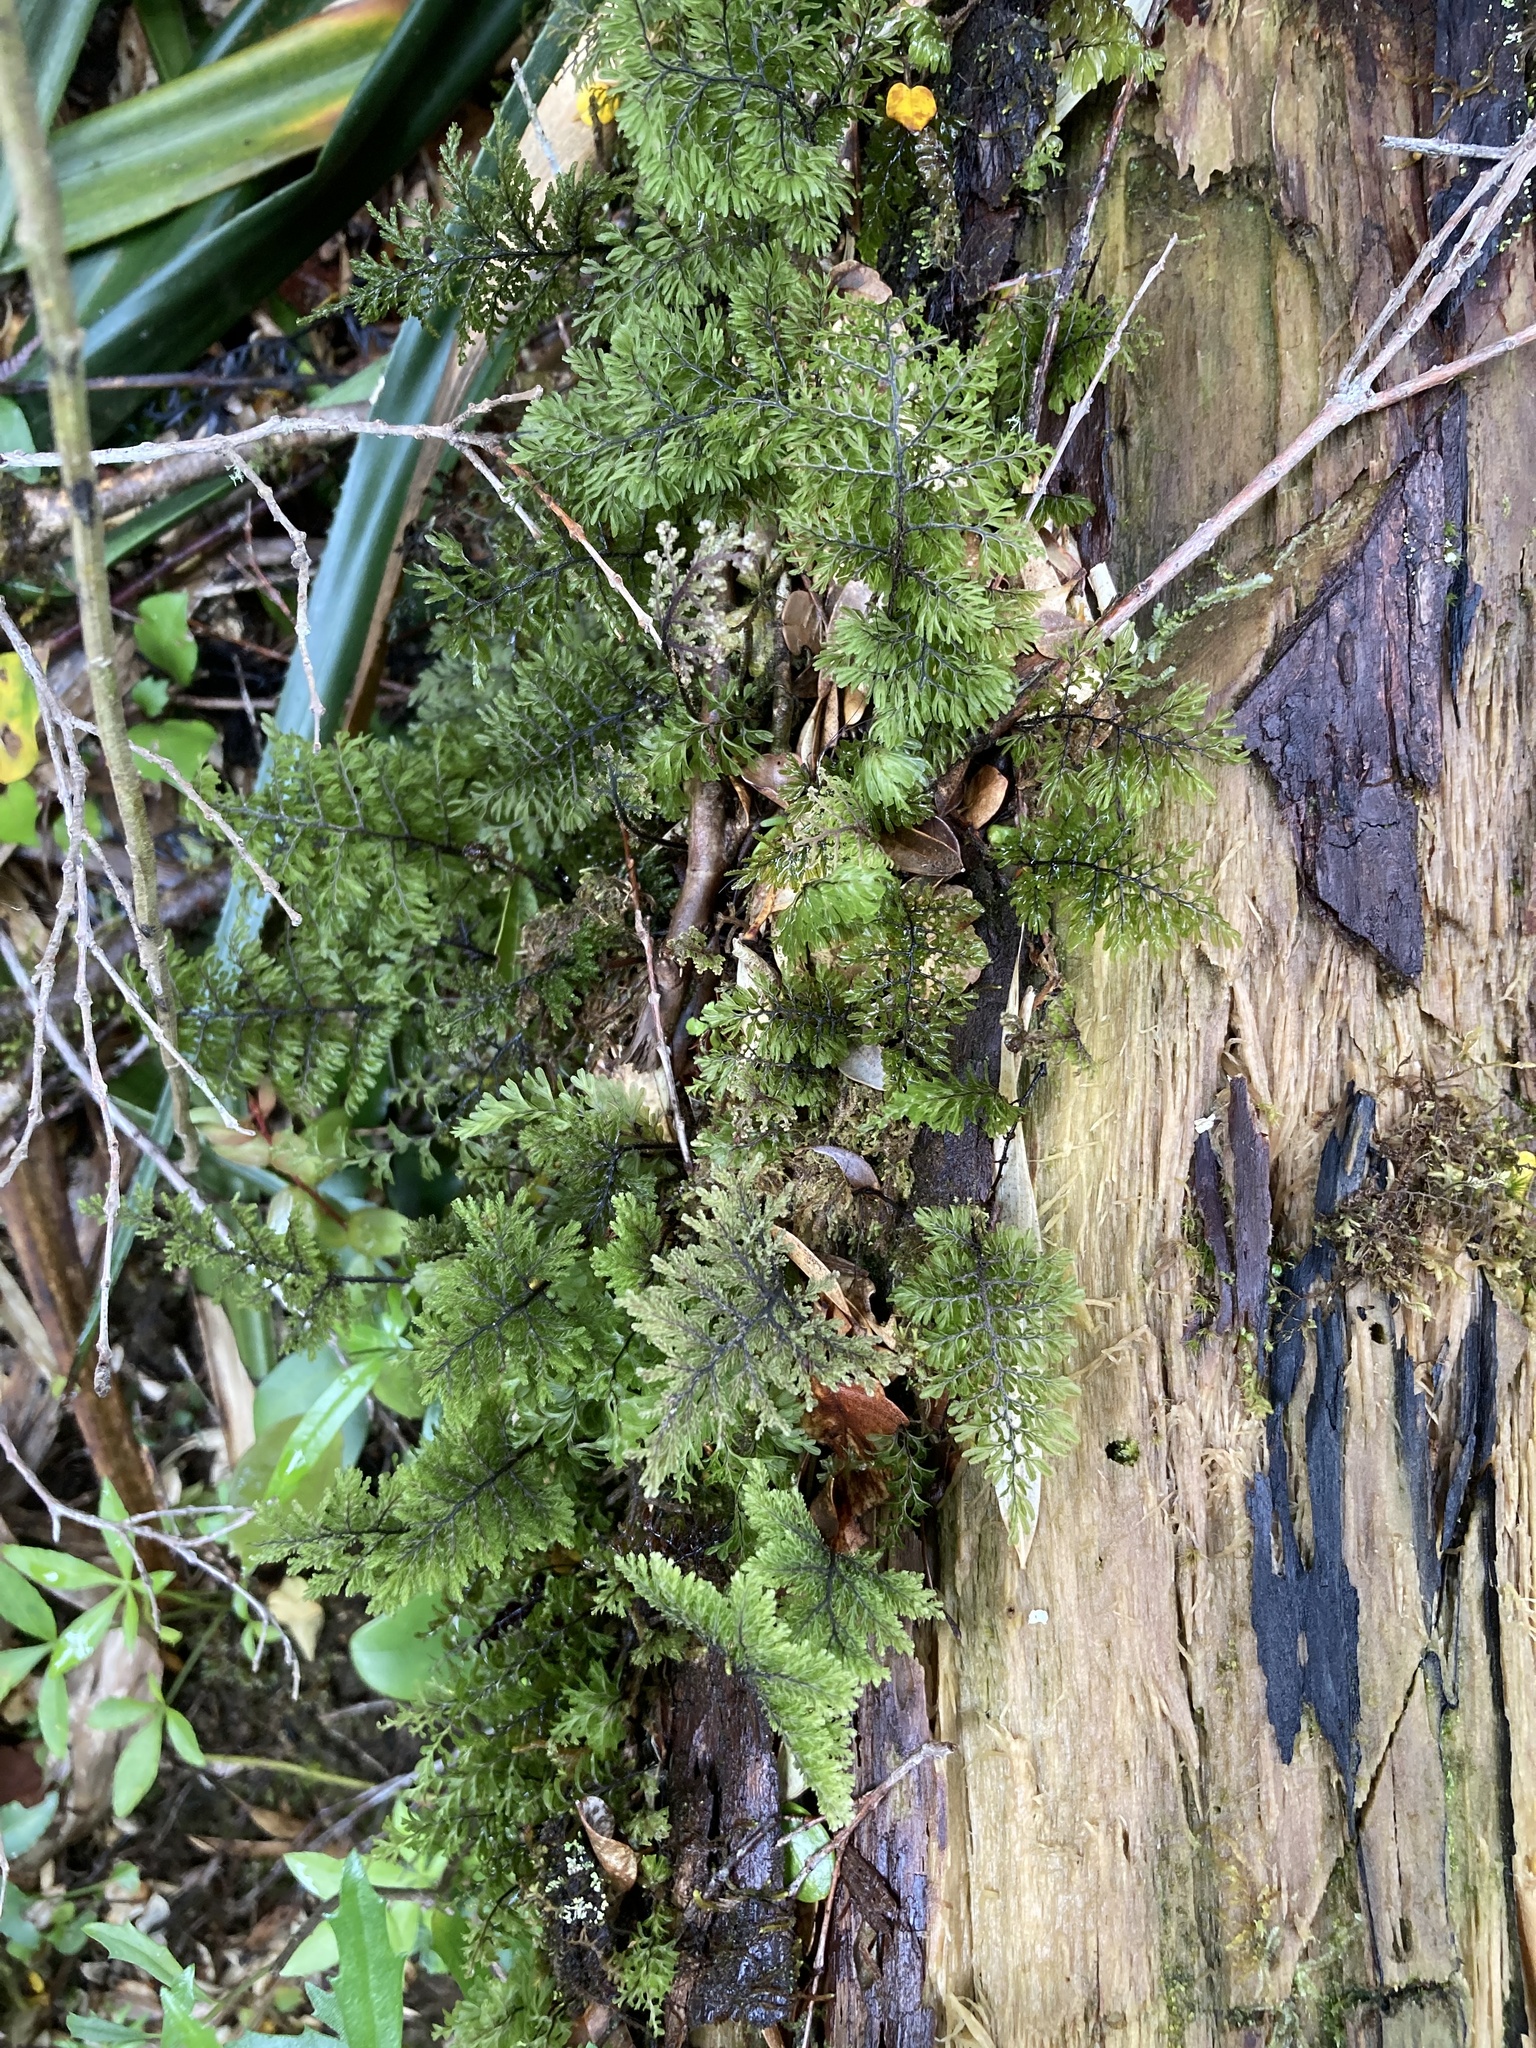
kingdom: Plantae
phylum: Tracheophyta
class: Polypodiopsida
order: Hymenophyllales
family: Hymenophyllaceae
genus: Hymenophyllum
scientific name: Hymenophyllum dentatum
